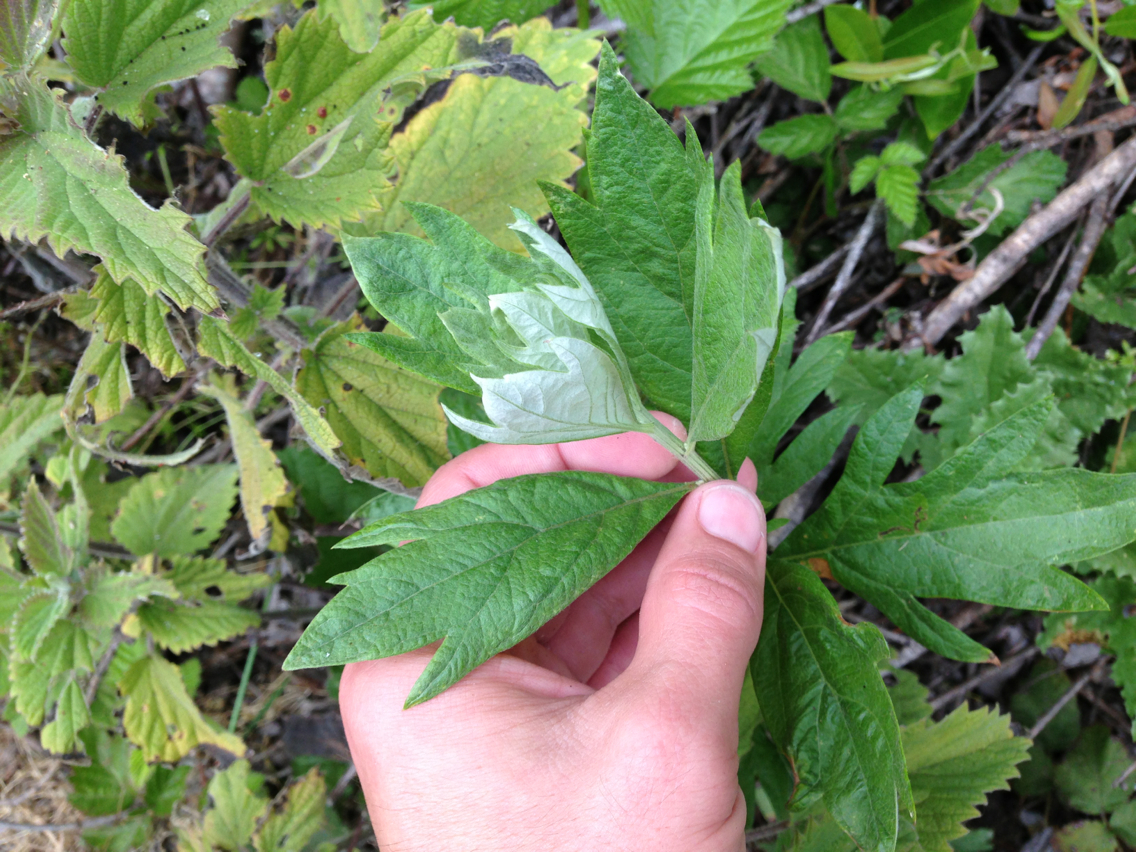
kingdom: Plantae
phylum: Tracheophyta
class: Magnoliopsida
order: Asterales
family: Asteraceae
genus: Artemisia
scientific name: Artemisia douglasiana
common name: Northwest mugwort
